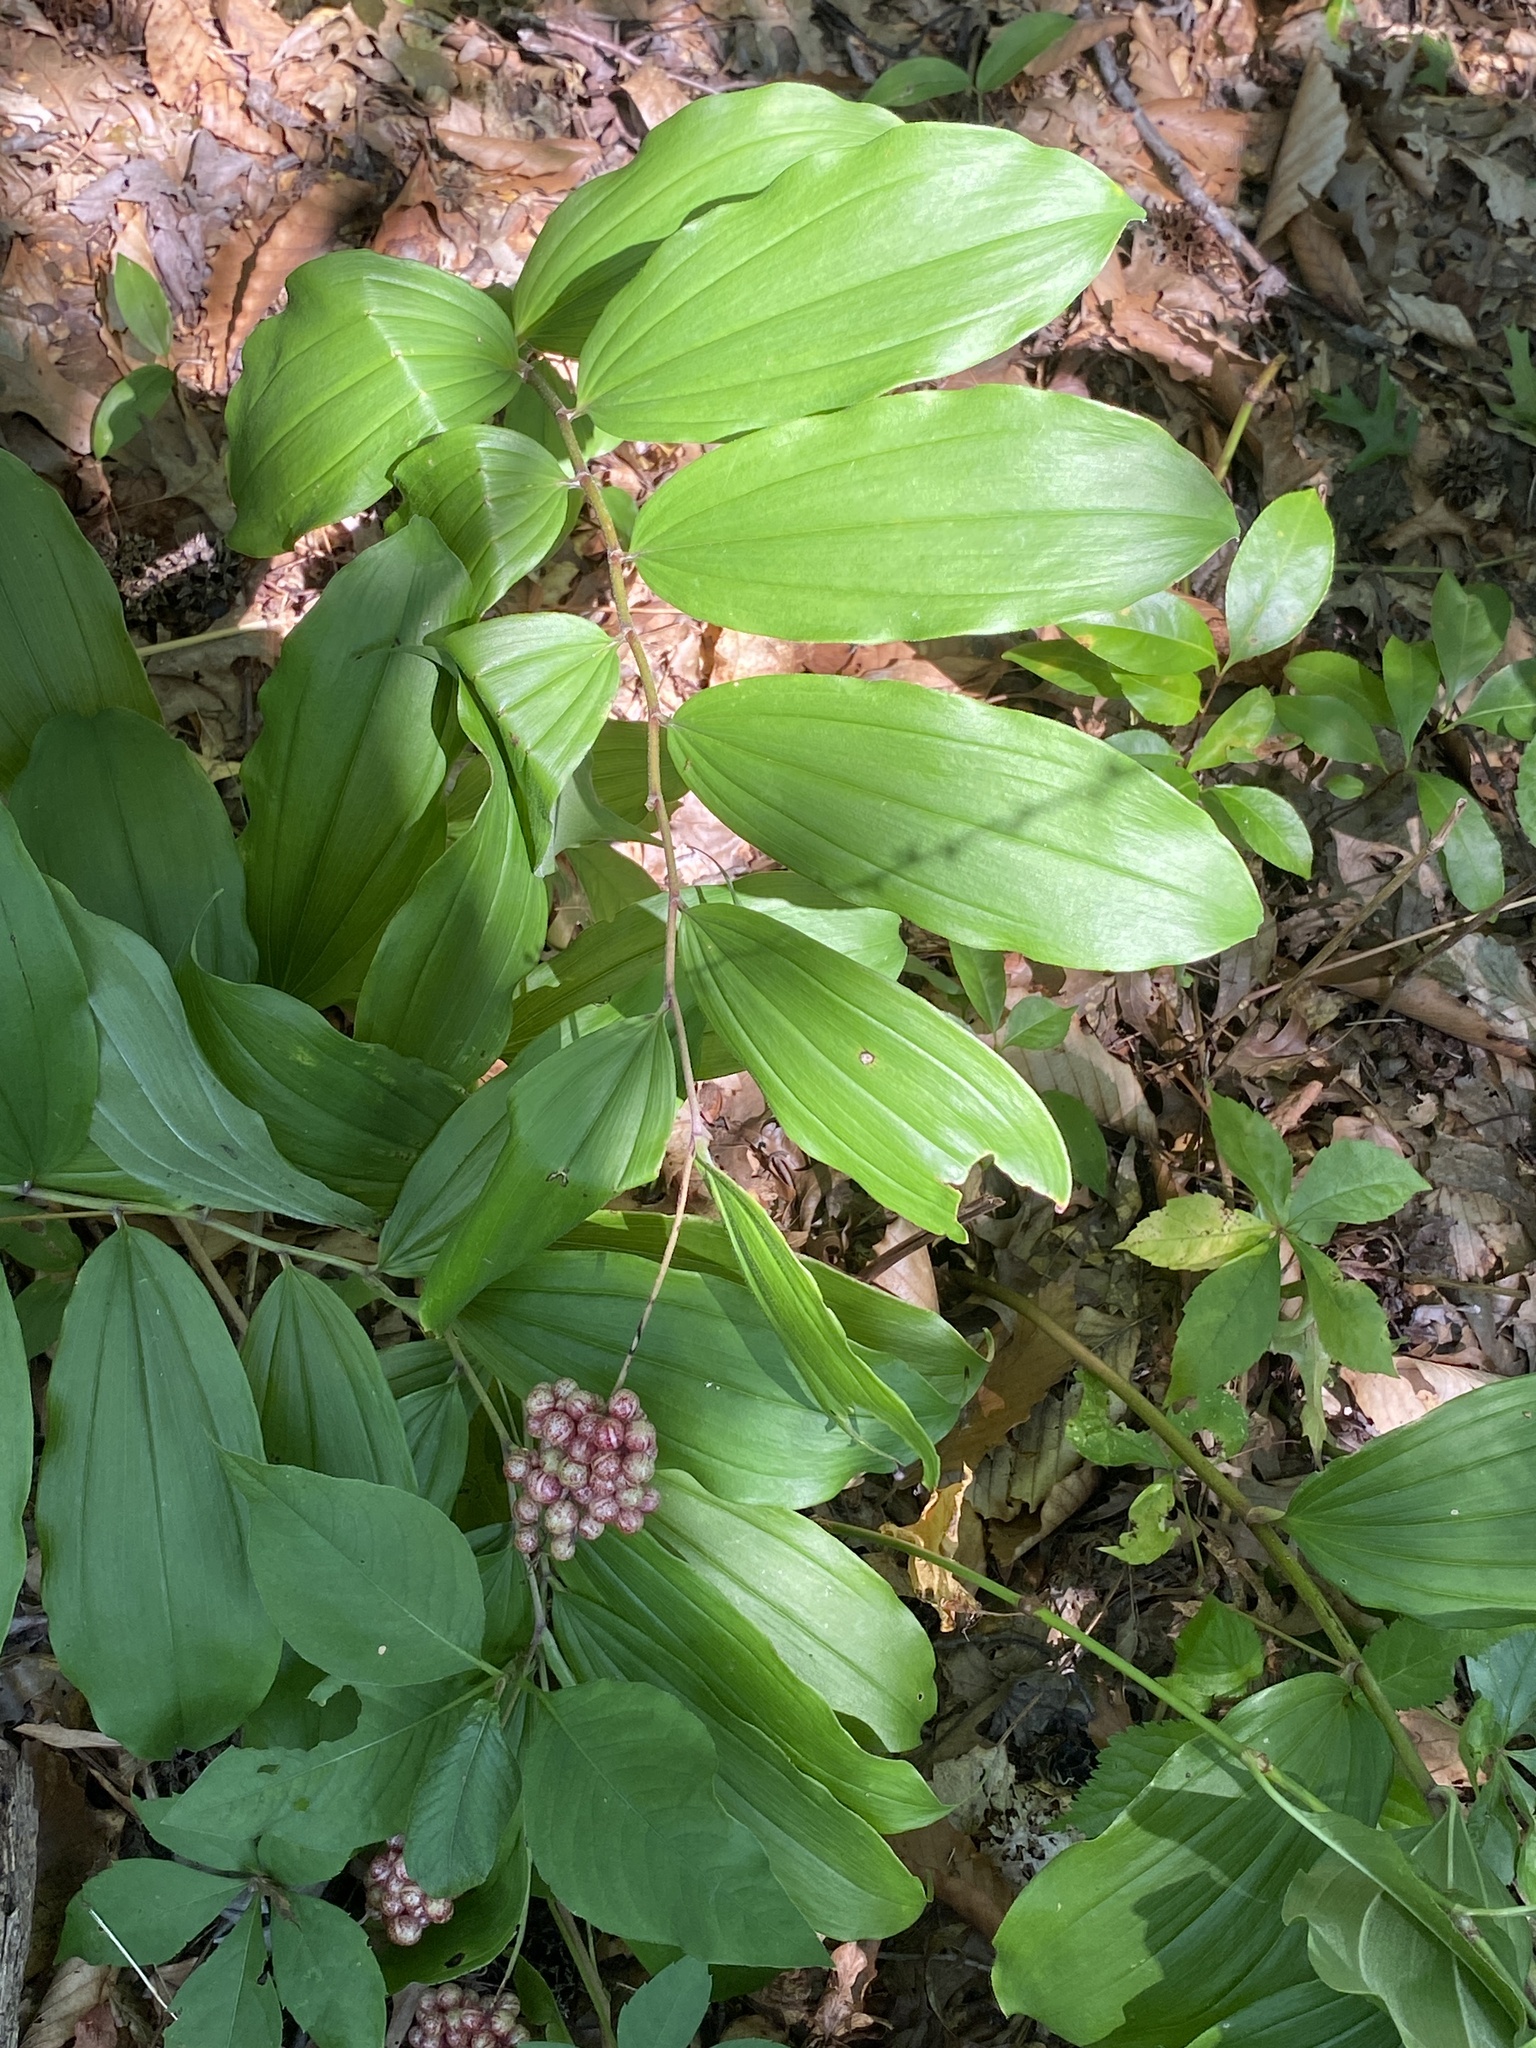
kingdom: Plantae
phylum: Tracheophyta
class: Liliopsida
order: Asparagales
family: Asparagaceae
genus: Maianthemum
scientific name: Maianthemum racemosum
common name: False spikenard
